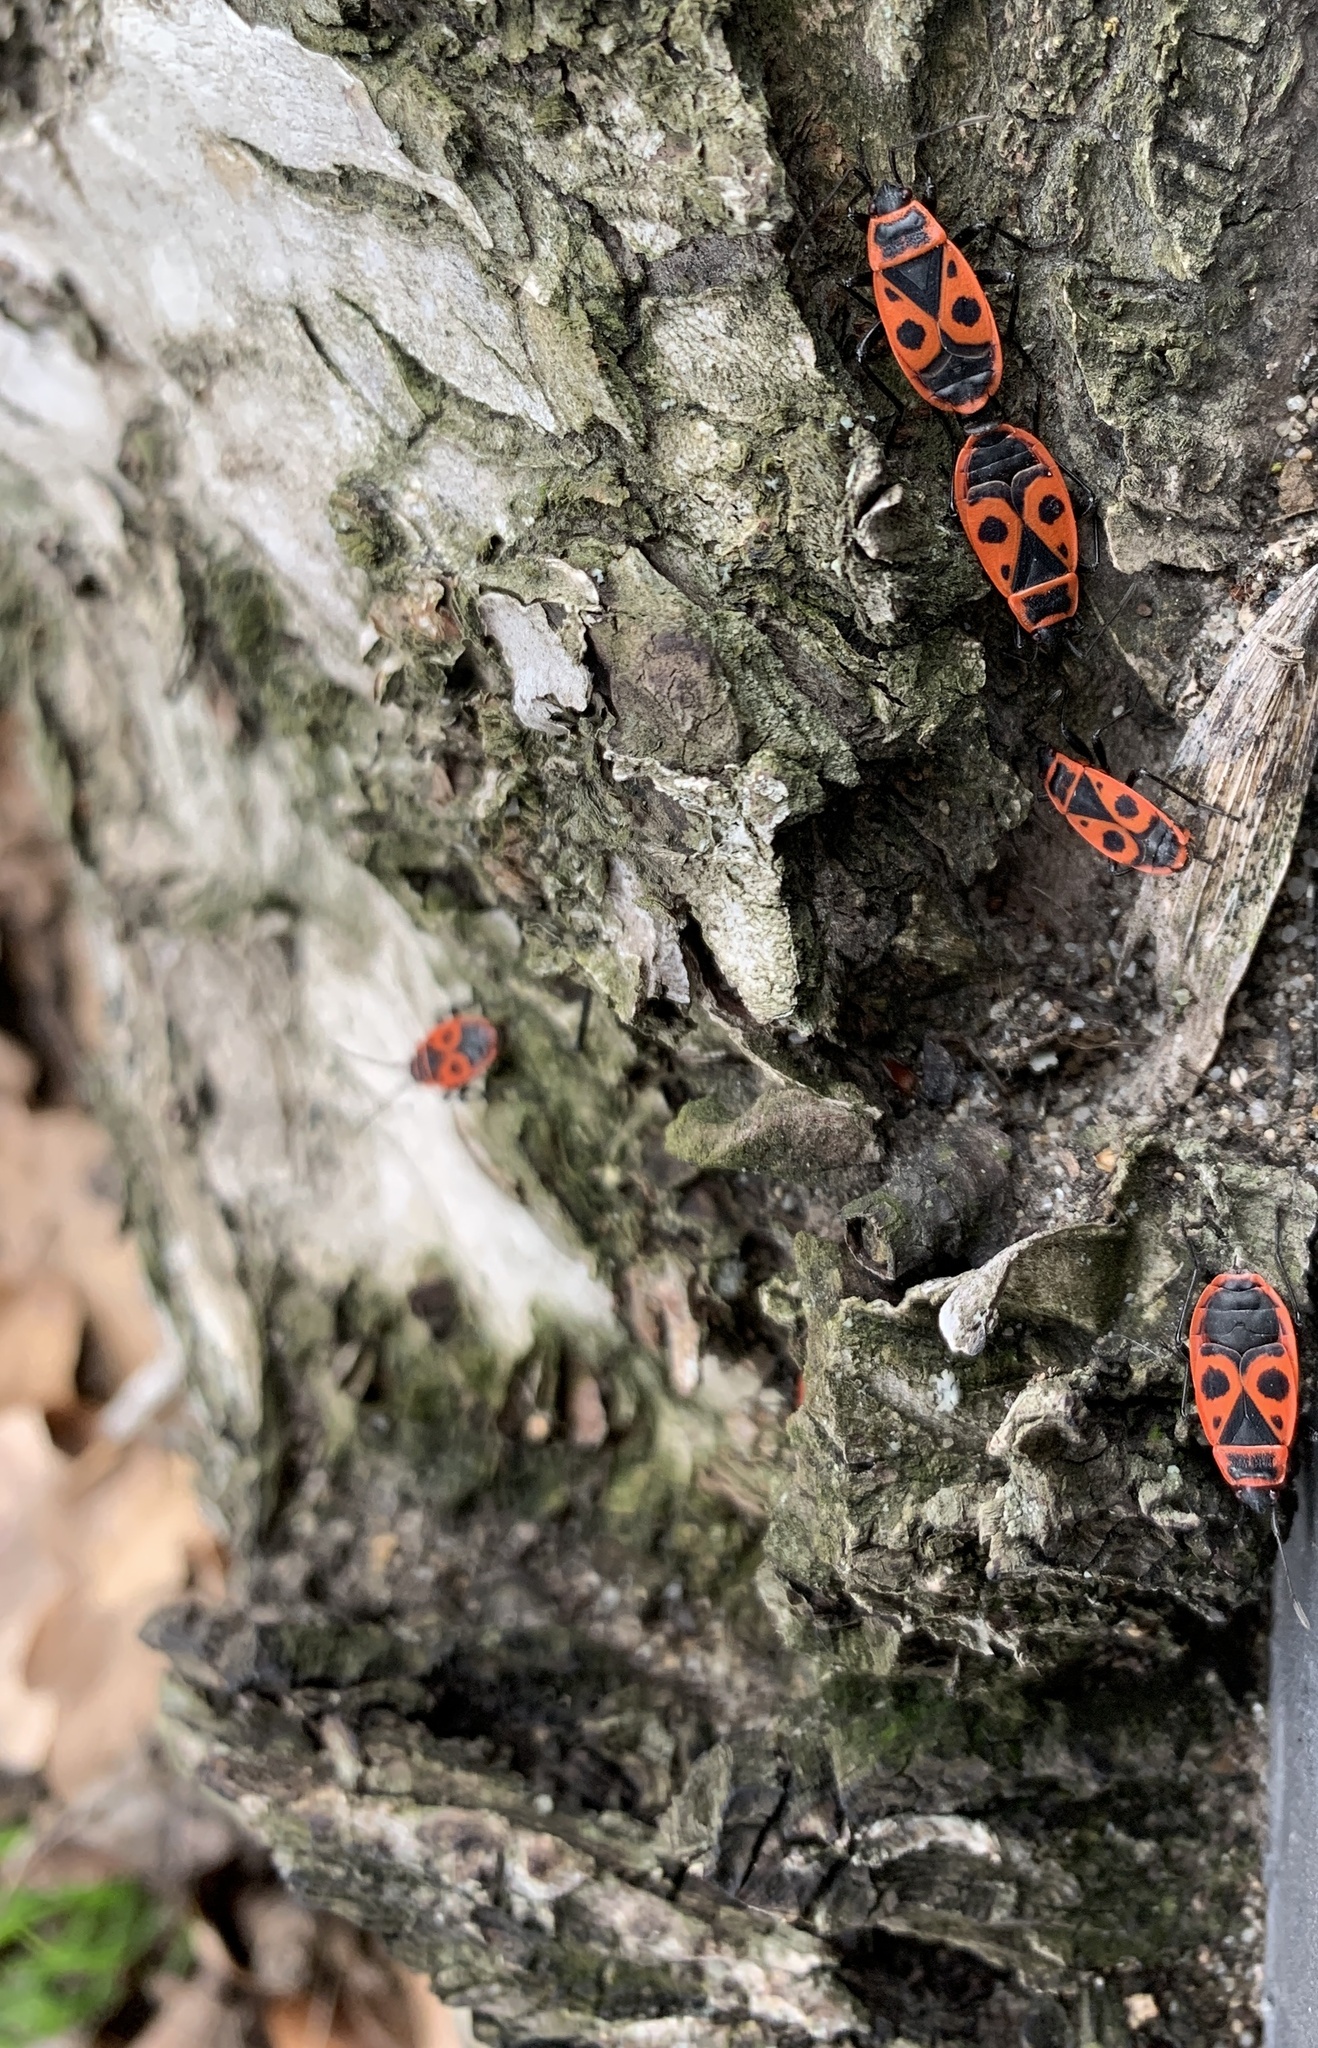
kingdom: Animalia
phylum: Arthropoda
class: Insecta
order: Hemiptera
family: Pyrrhocoridae
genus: Pyrrhocoris
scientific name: Pyrrhocoris apterus
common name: Firebug
